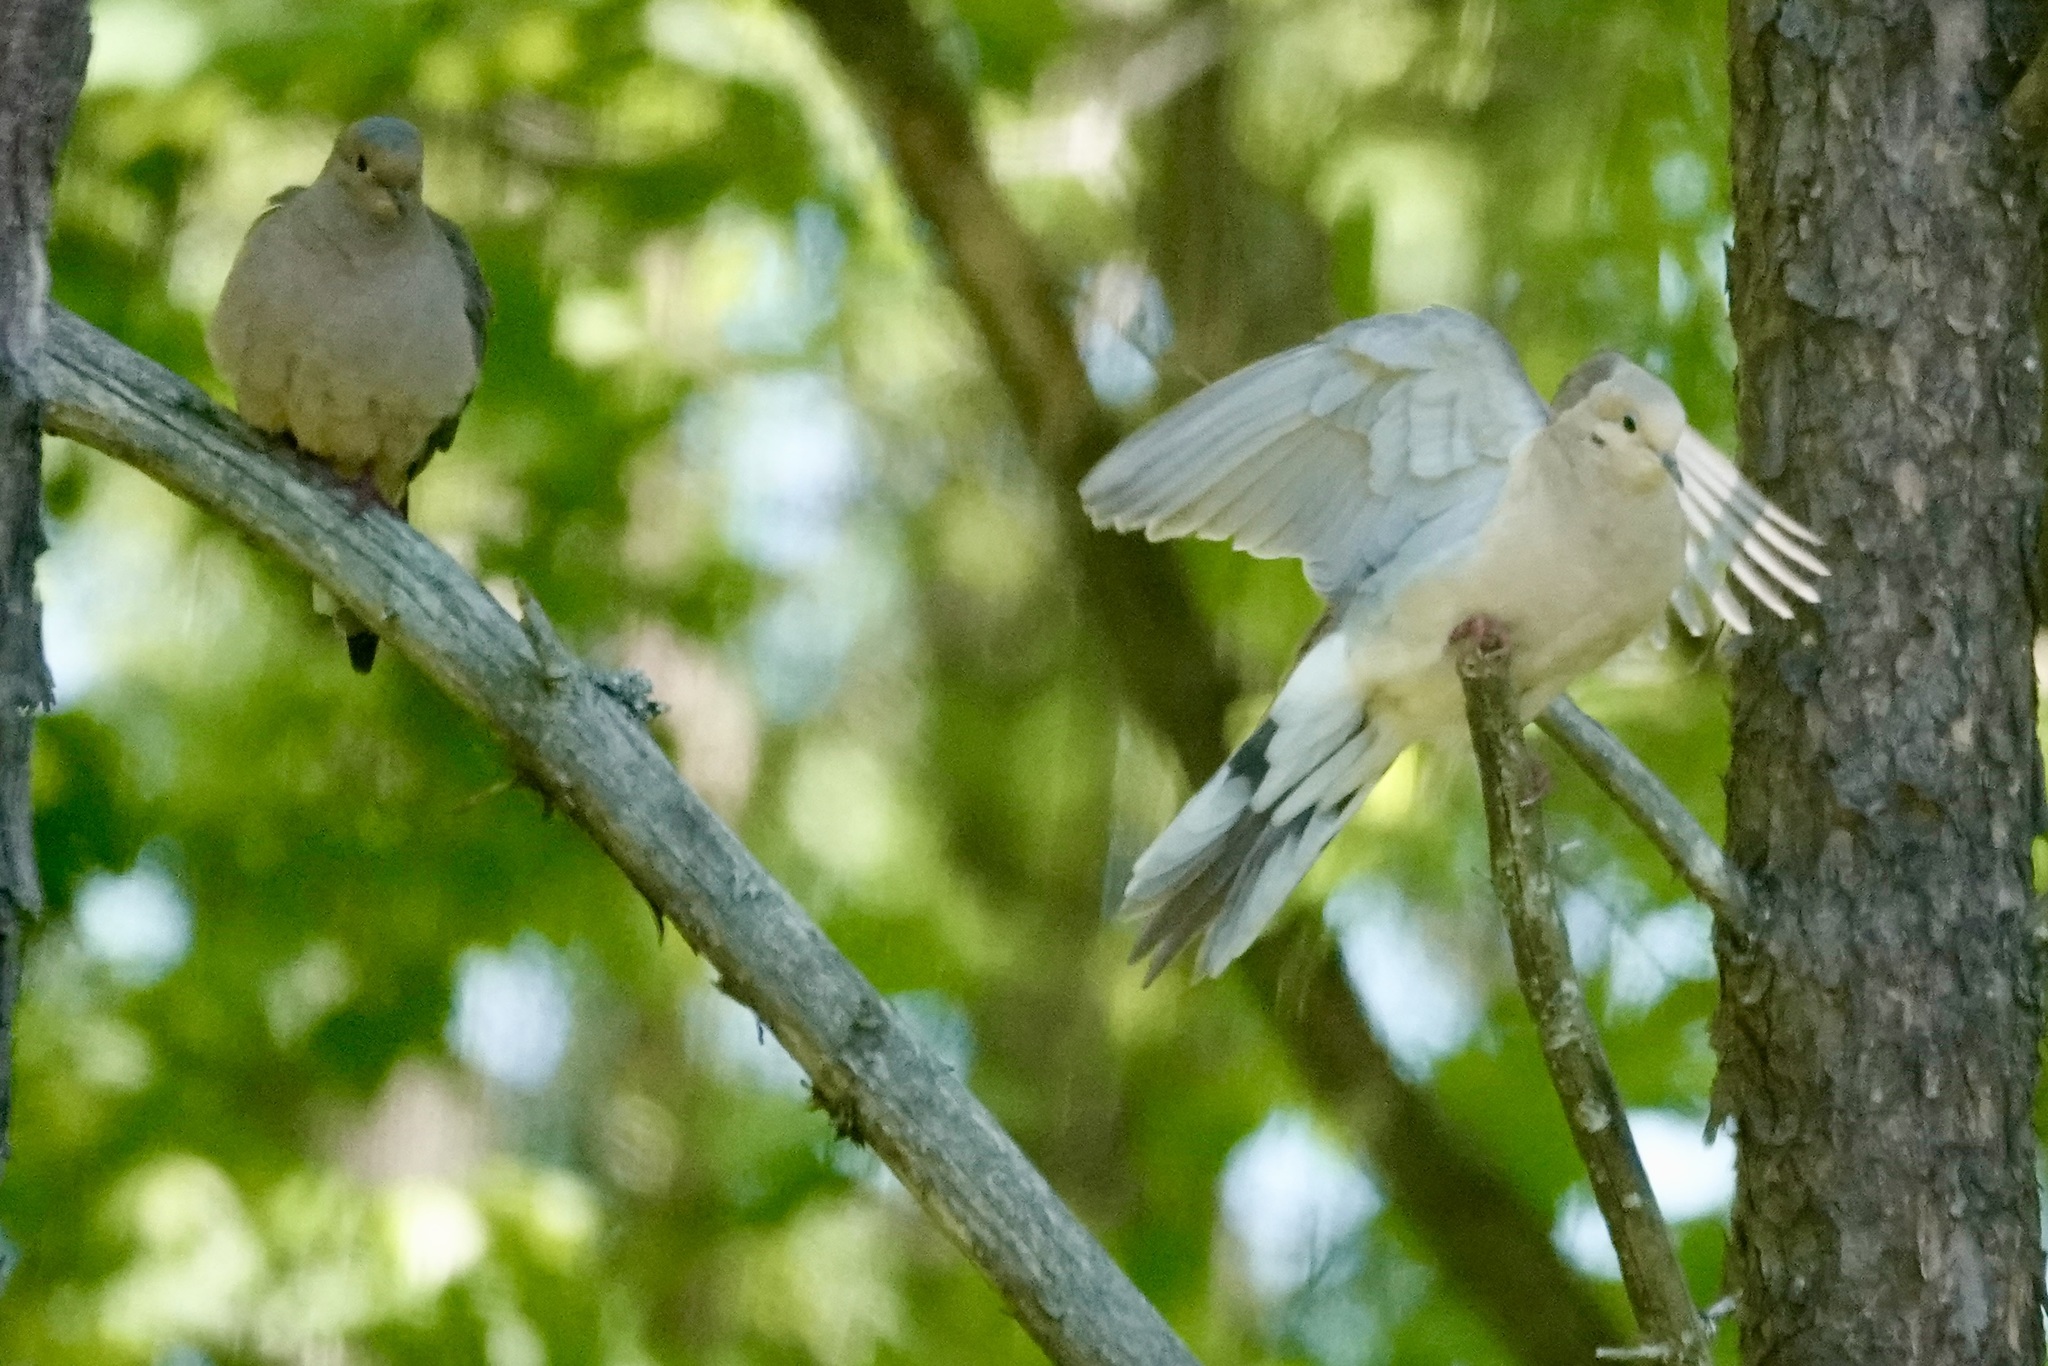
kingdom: Animalia
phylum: Chordata
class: Aves
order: Columbiformes
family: Columbidae
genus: Zenaida
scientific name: Zenaida macroura
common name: Mourning dove
